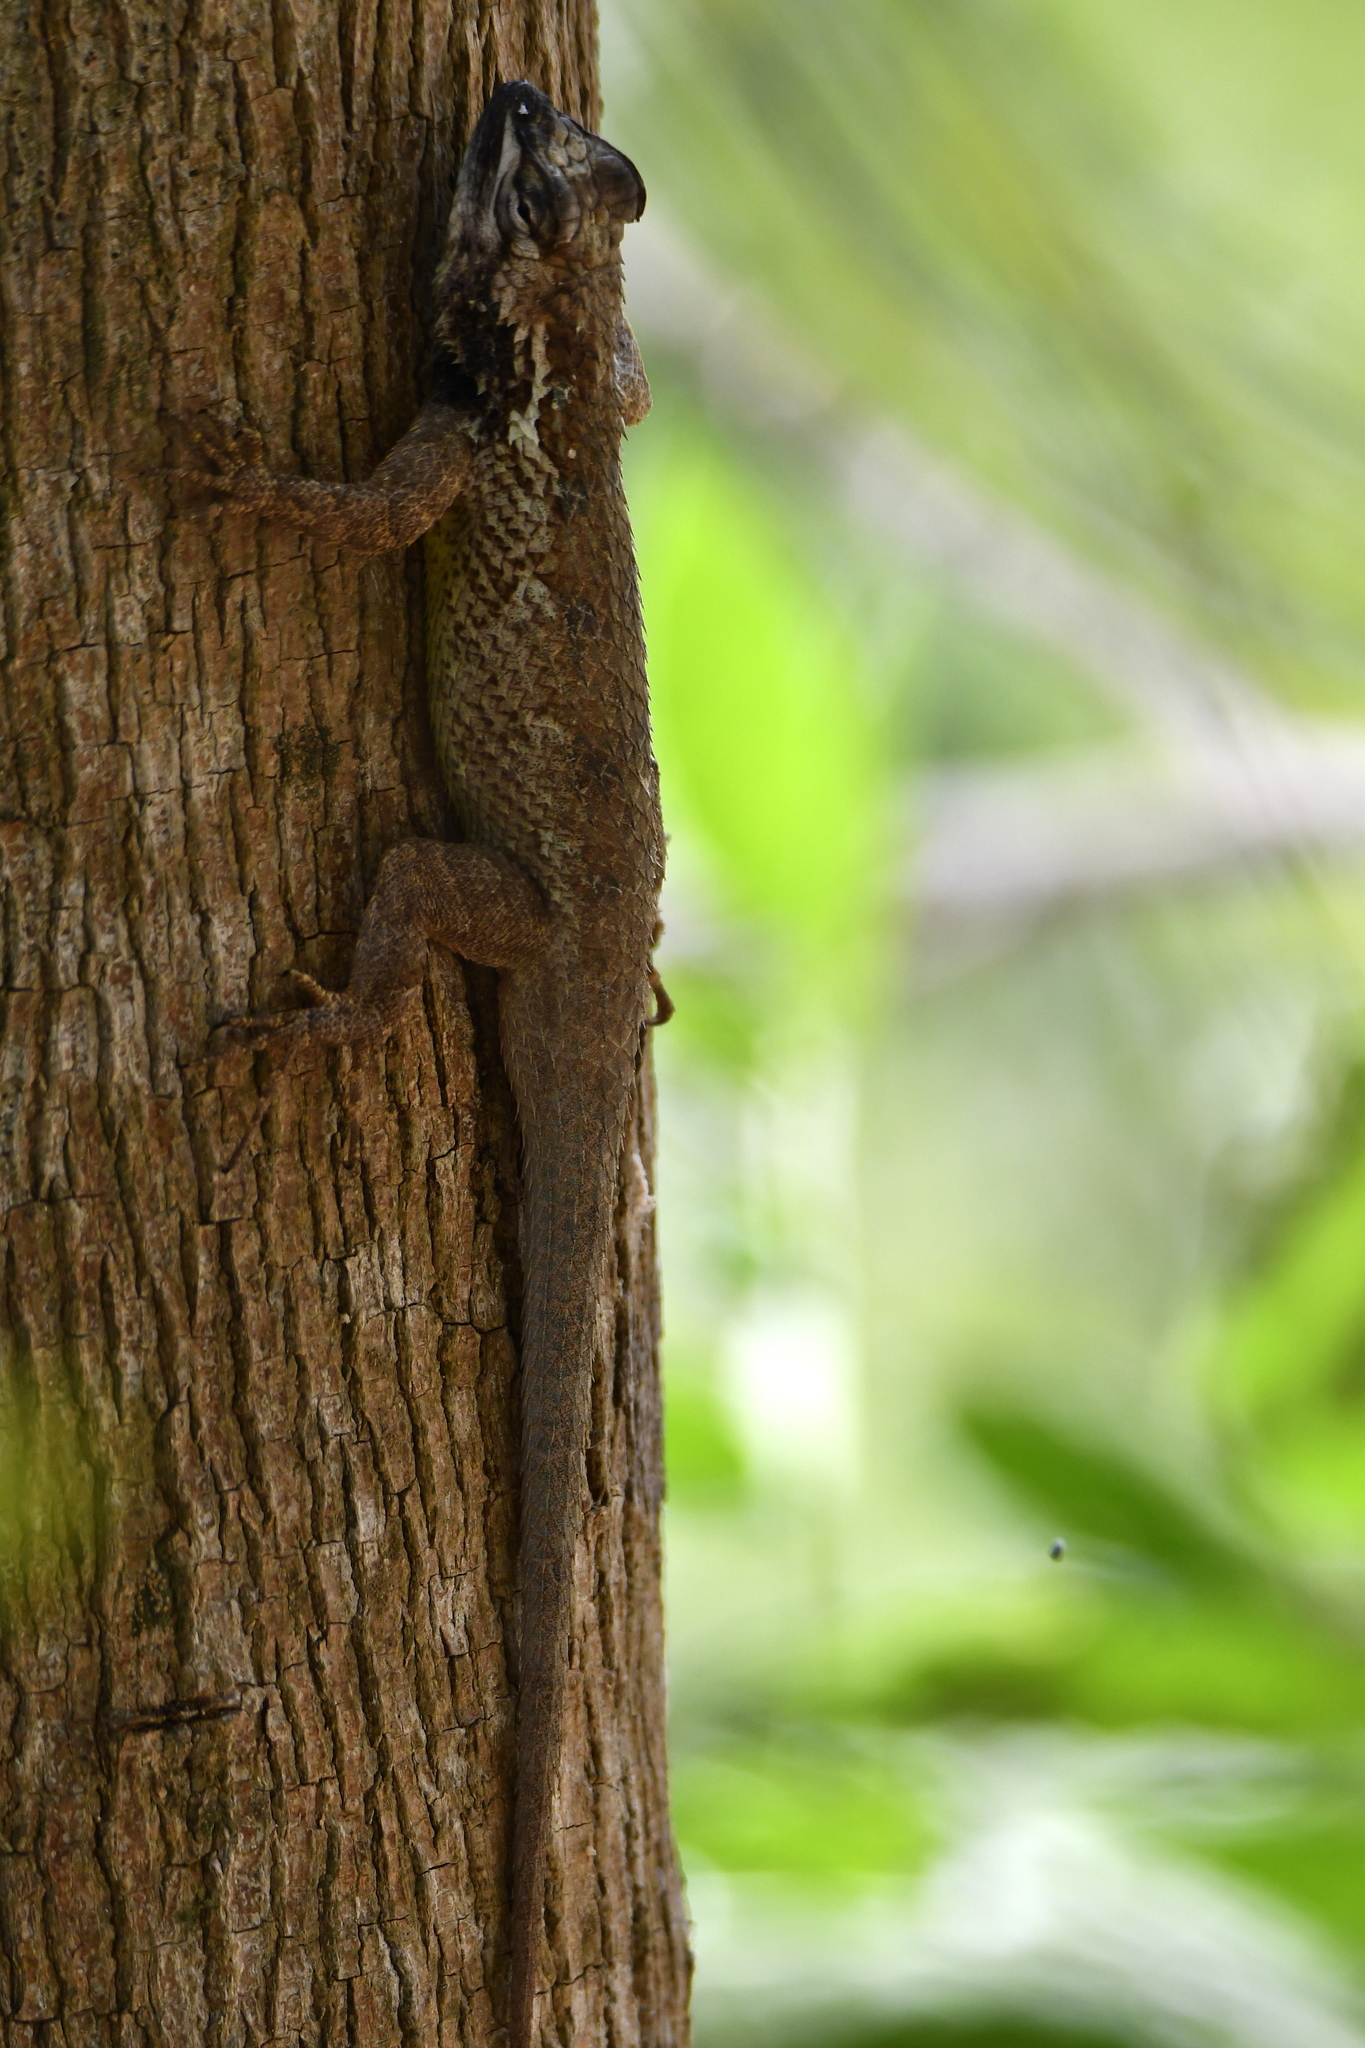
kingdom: Animalia
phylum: Chordata
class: Squamata
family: Phrynosomatidae
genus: Sceloporus
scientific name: Sceloporus melanorhinus
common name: Black-nosed lizard
